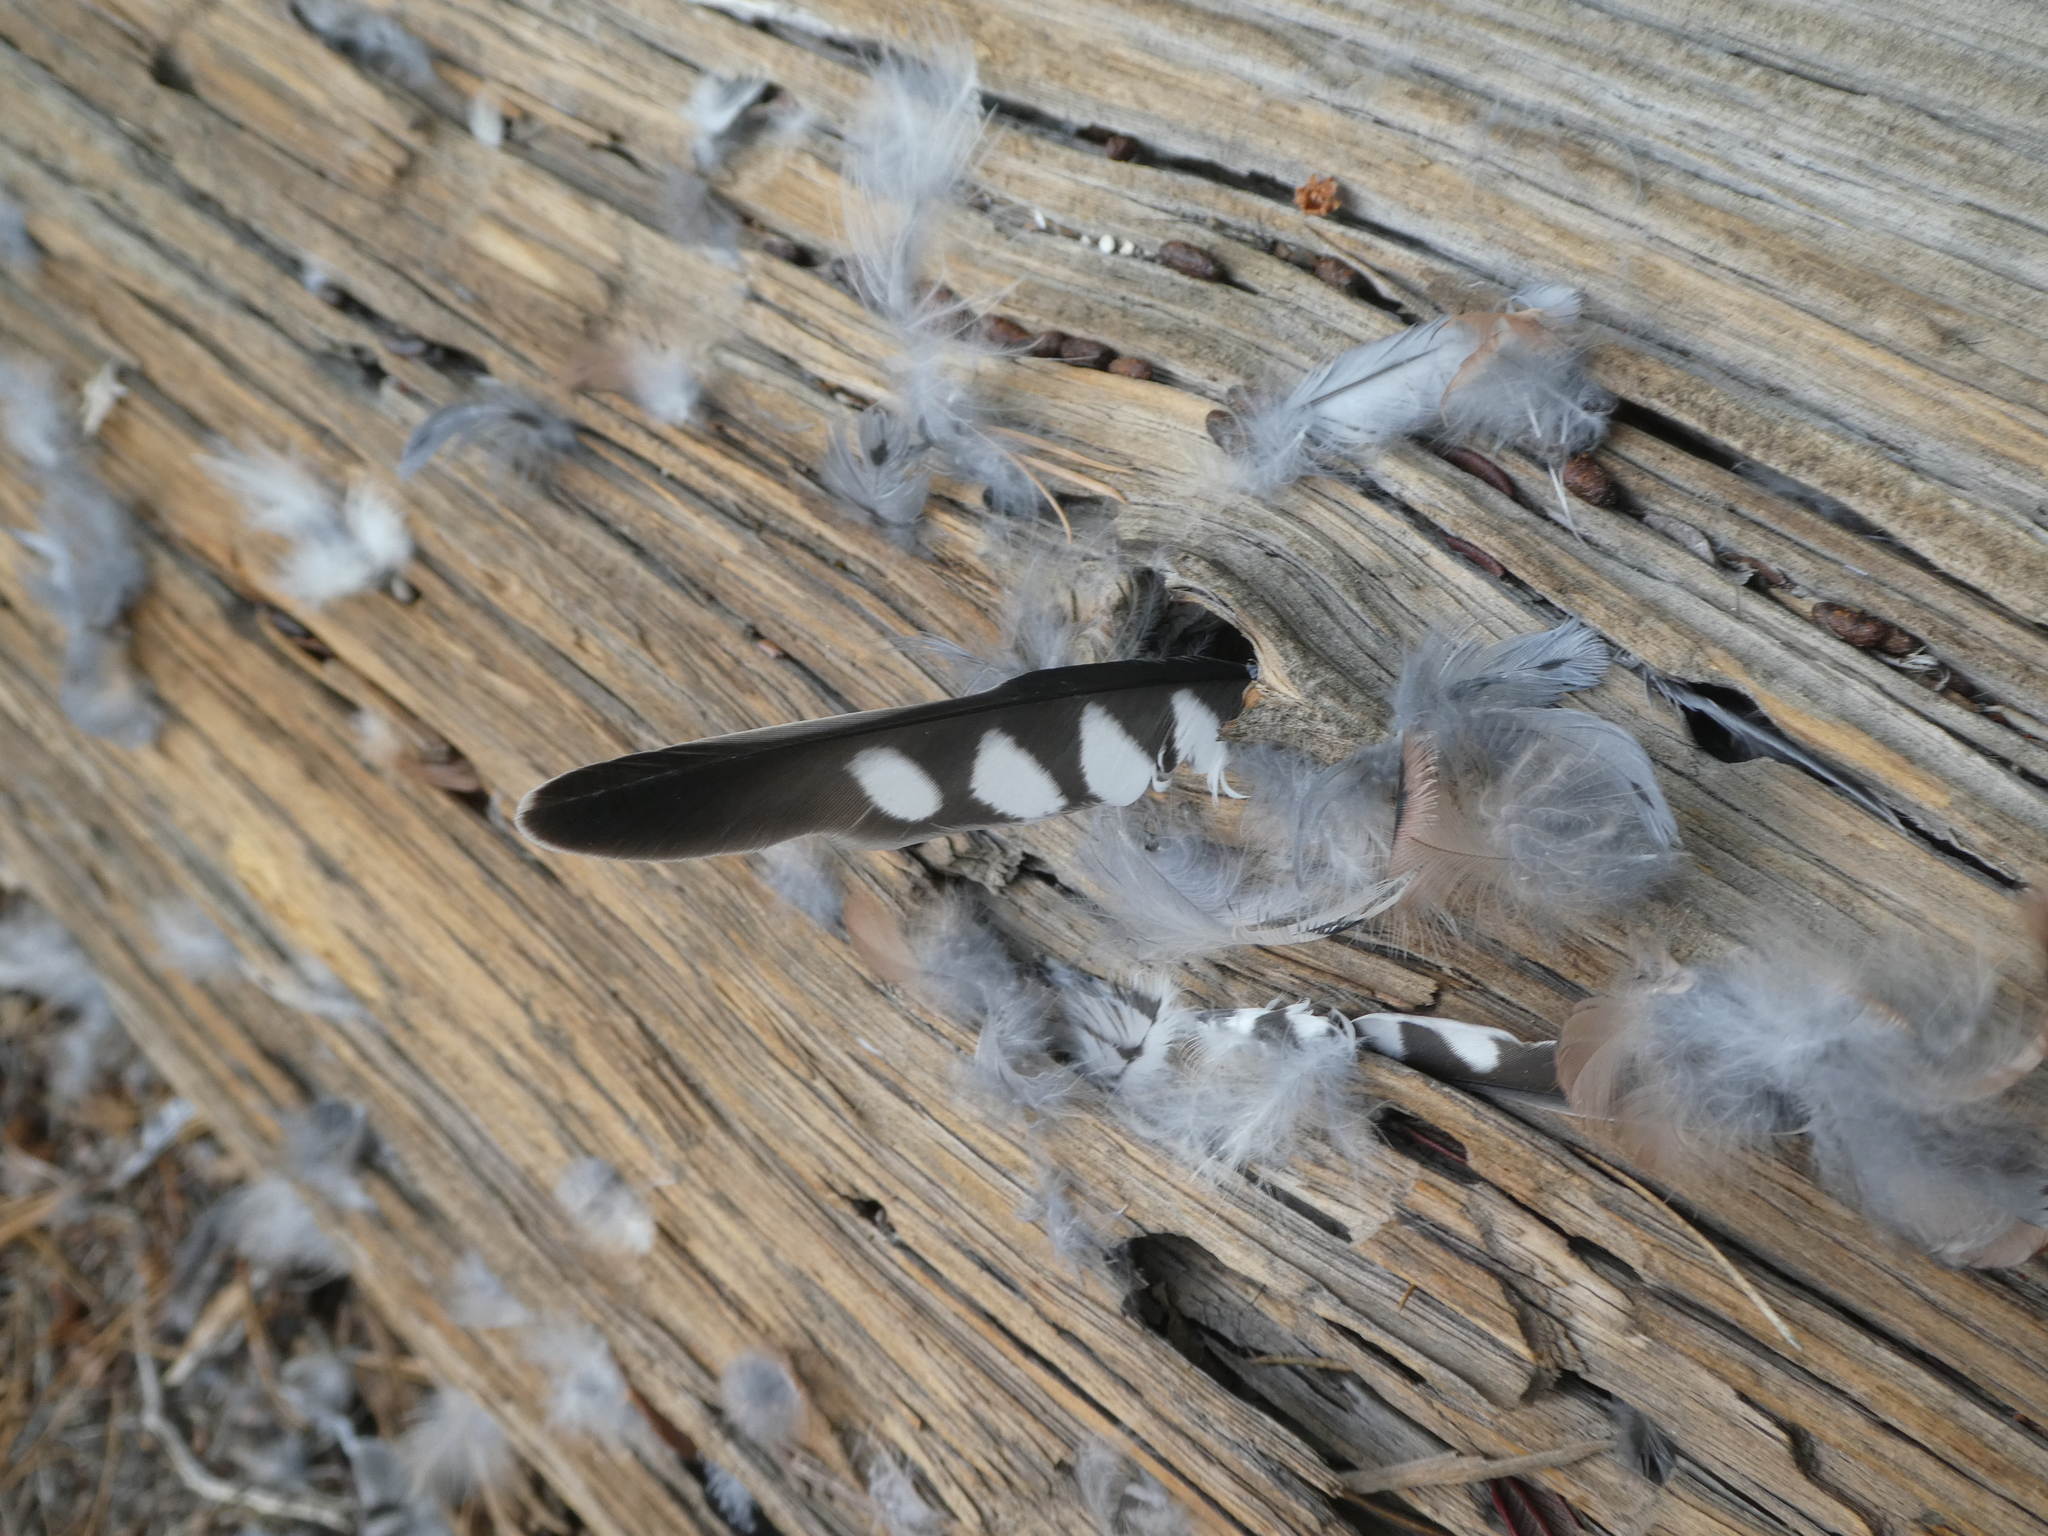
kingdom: Animalia
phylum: Chordata
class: Aves
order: Falconiformes
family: Falconidae
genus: Falco
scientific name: Falco sparverius
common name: American kestrel
